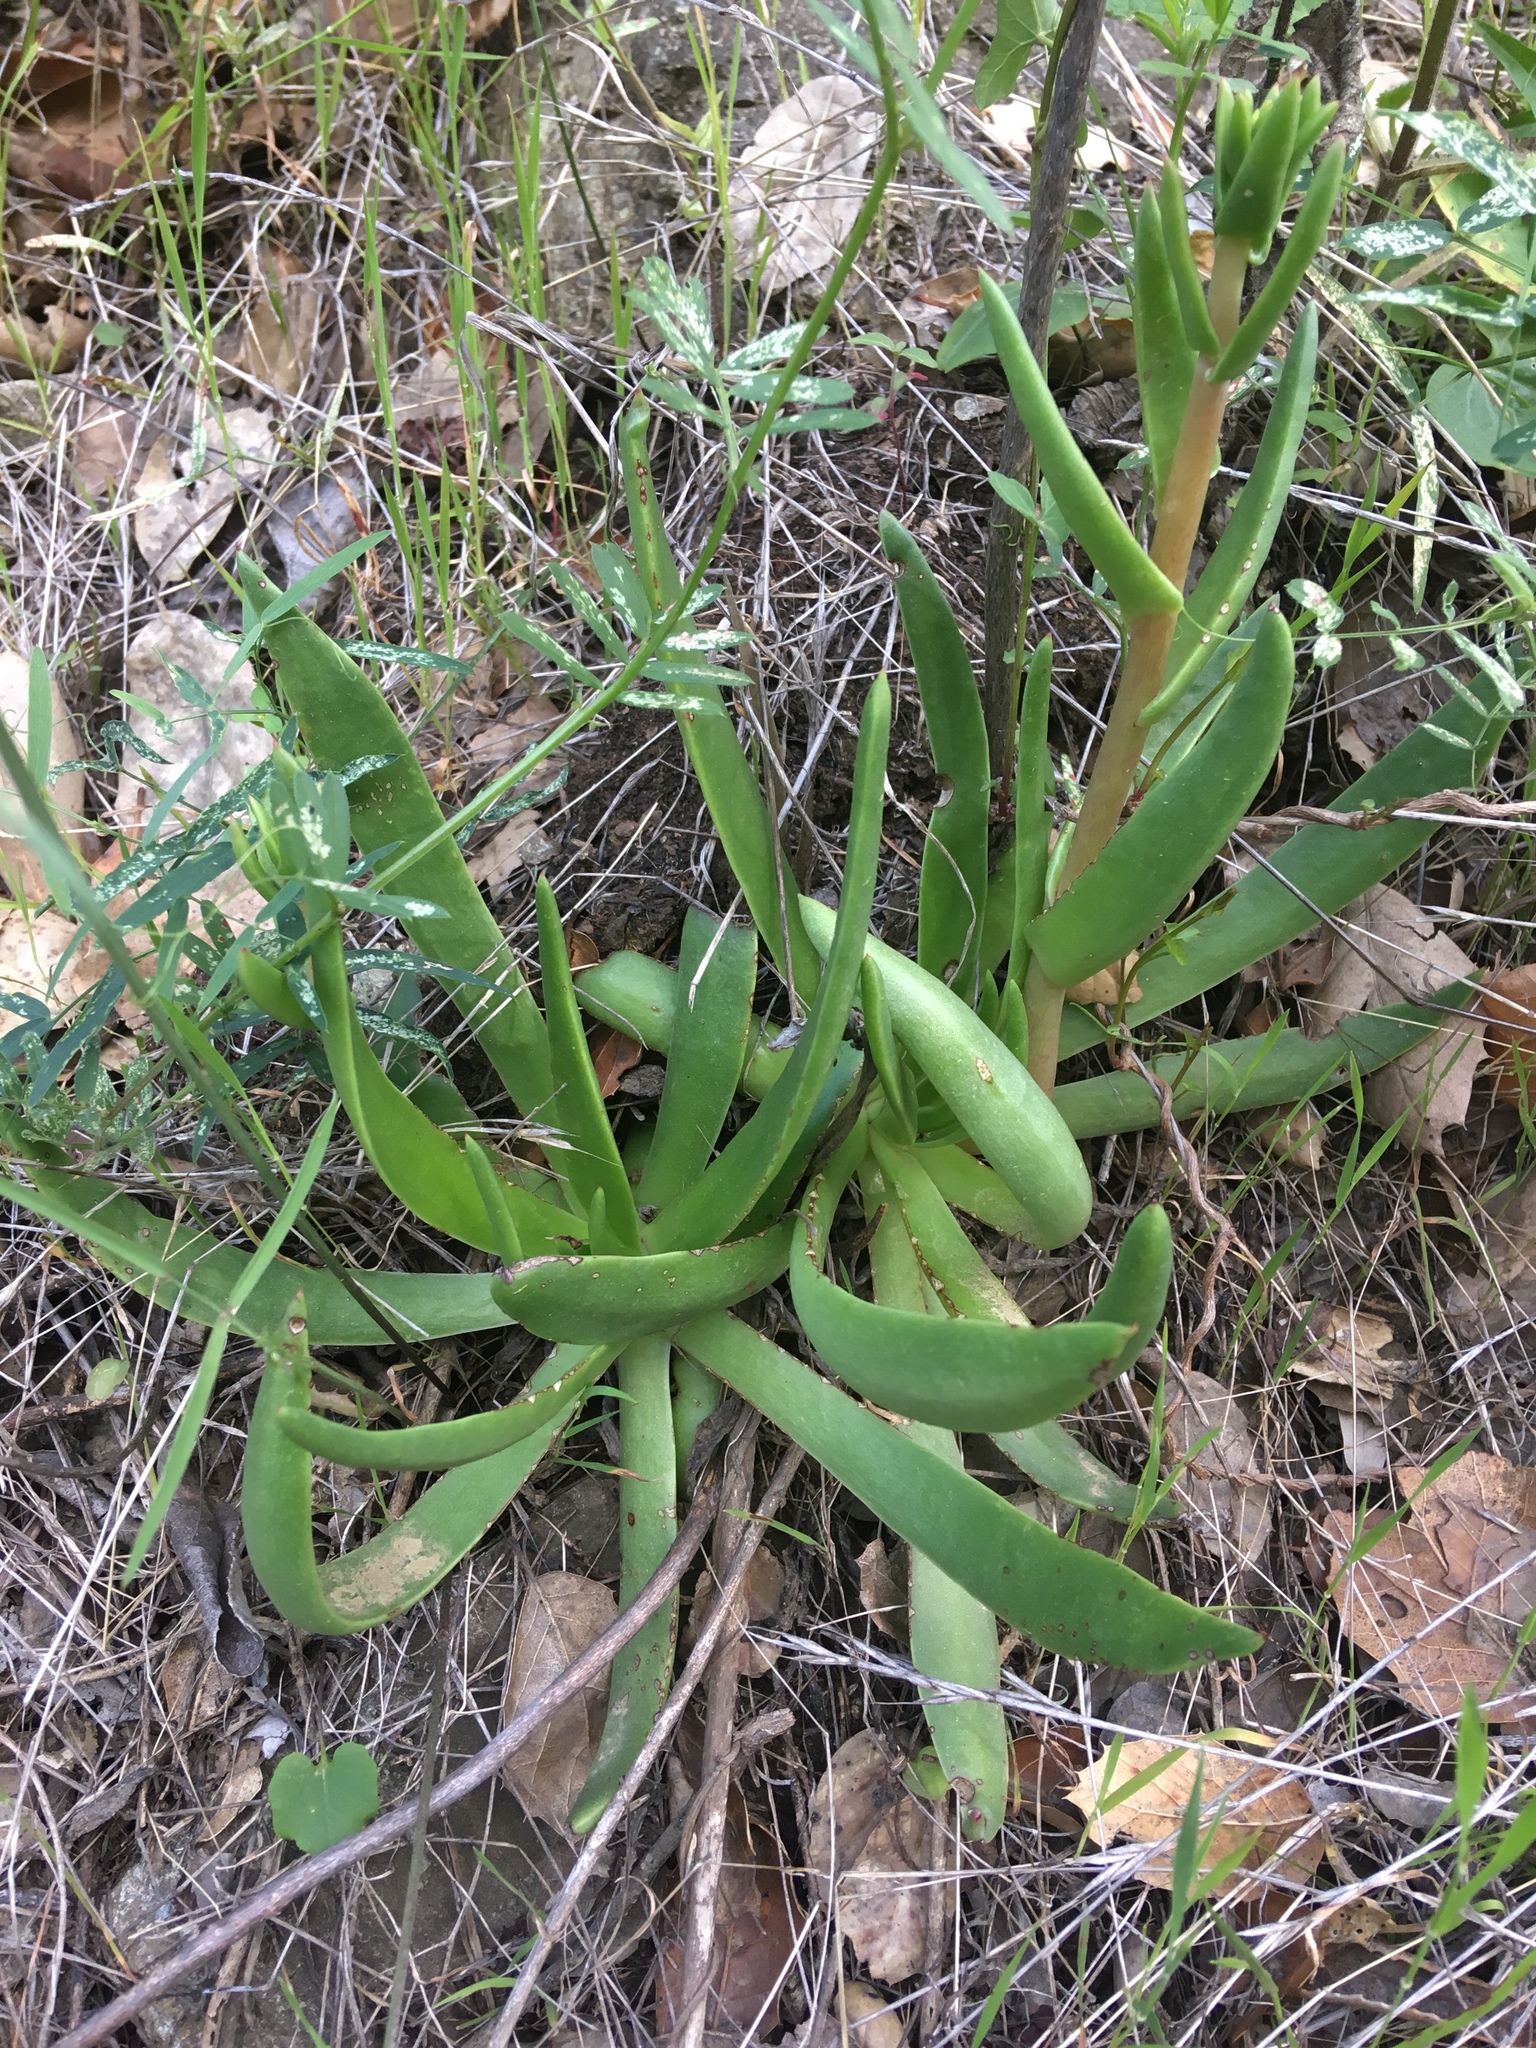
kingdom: Plantae
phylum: Tracheophyta
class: Magnoliopsida
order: Saxifragales
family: Crassulaceae
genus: Dudleya
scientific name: Dudleya lanceolata
